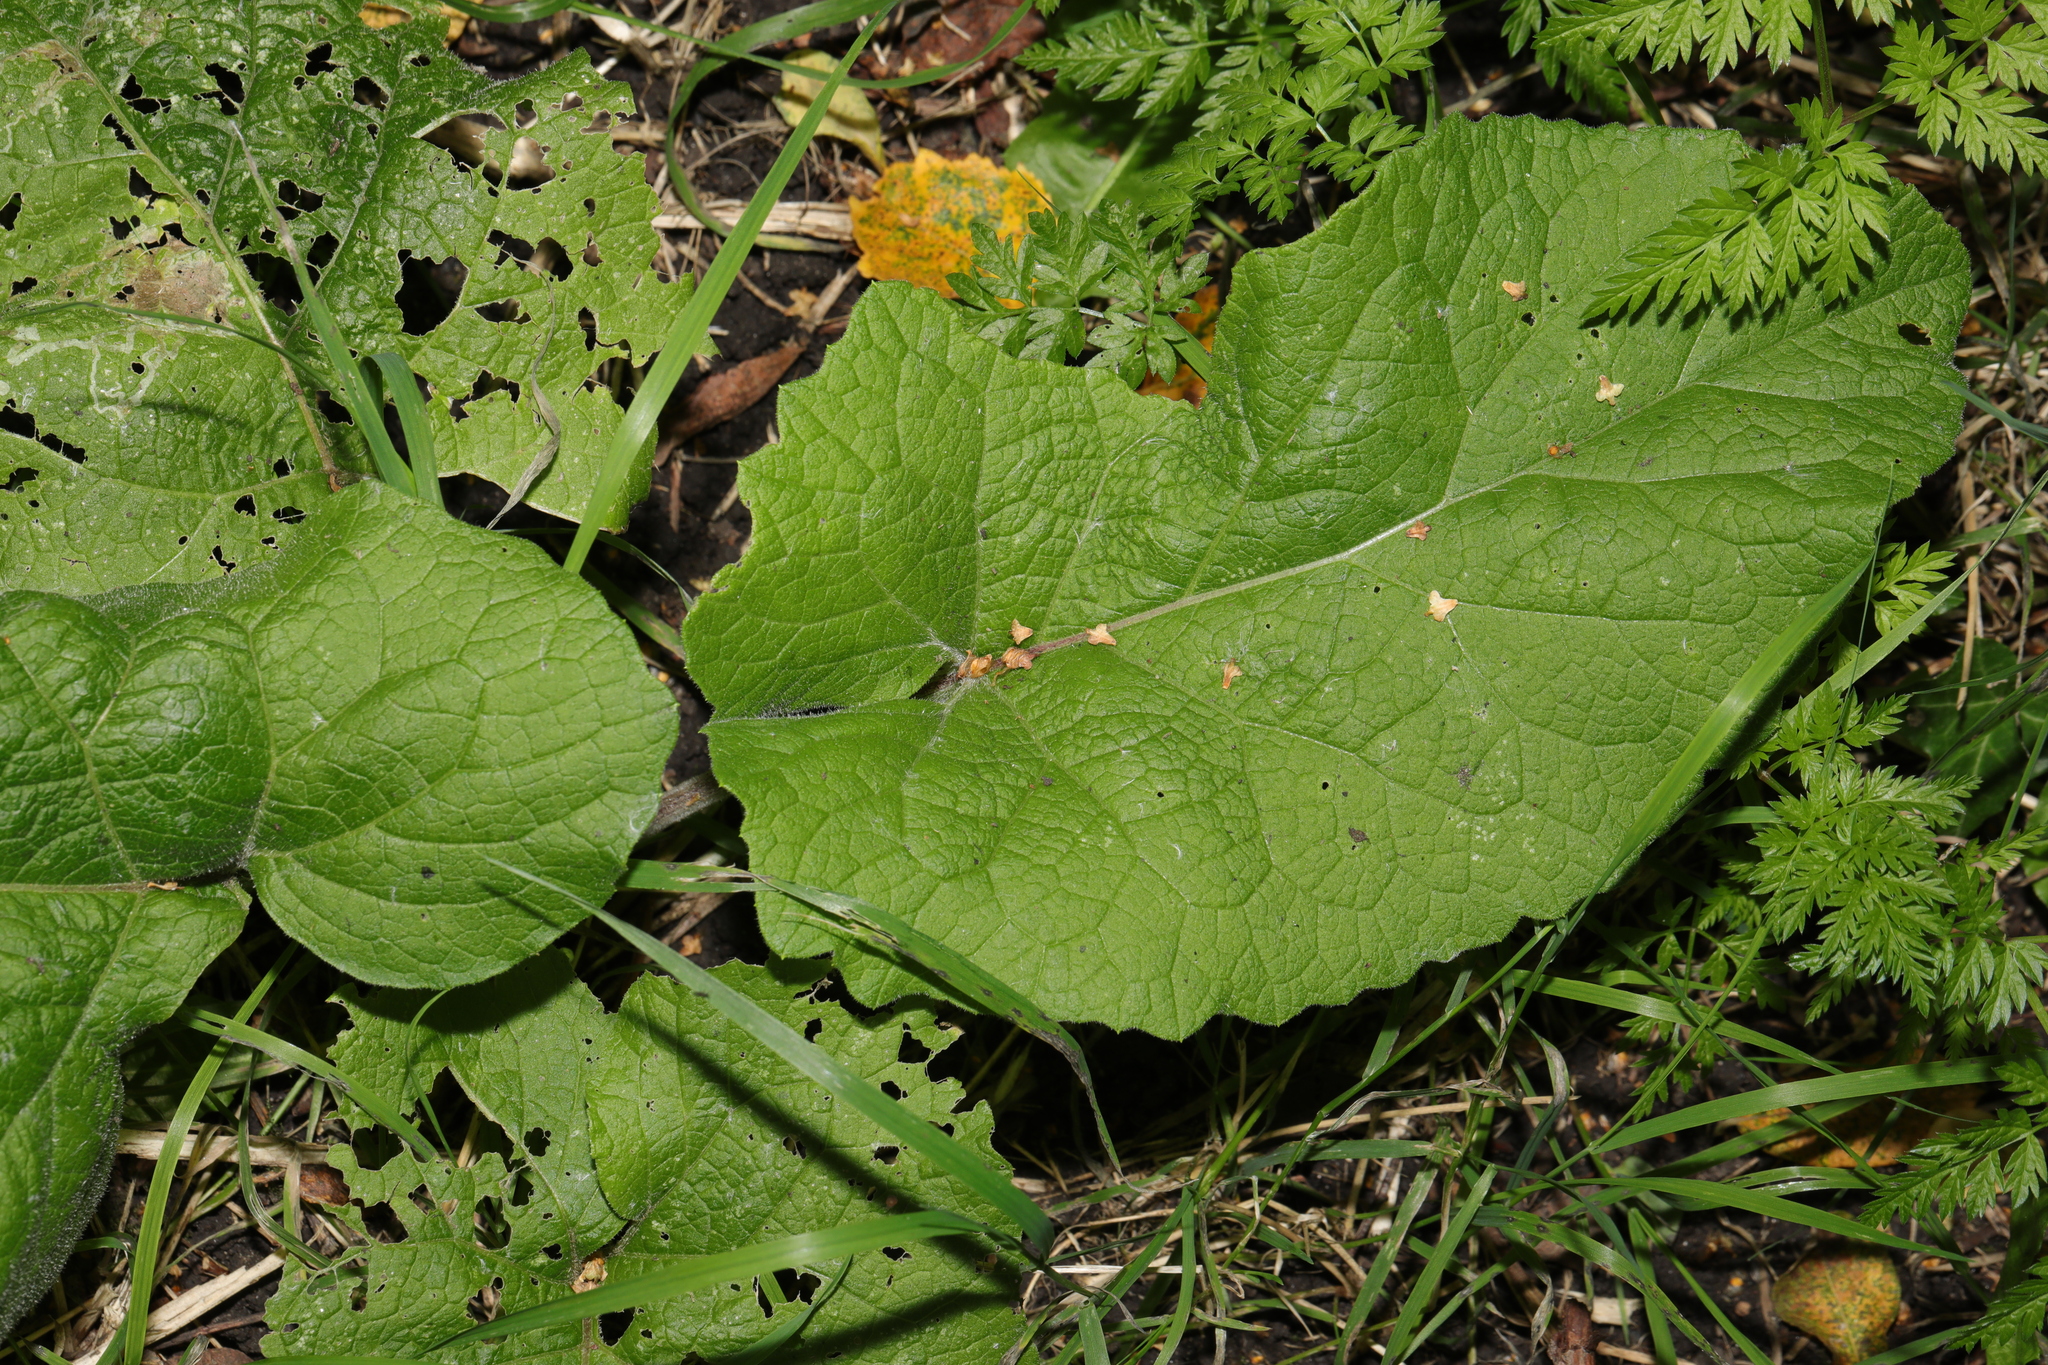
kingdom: Plantae
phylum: Tracheophyta
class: Magnoliopsida
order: Asterales
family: Asteraceae
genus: Arctium
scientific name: Arctium minus
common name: Lesser burdock
